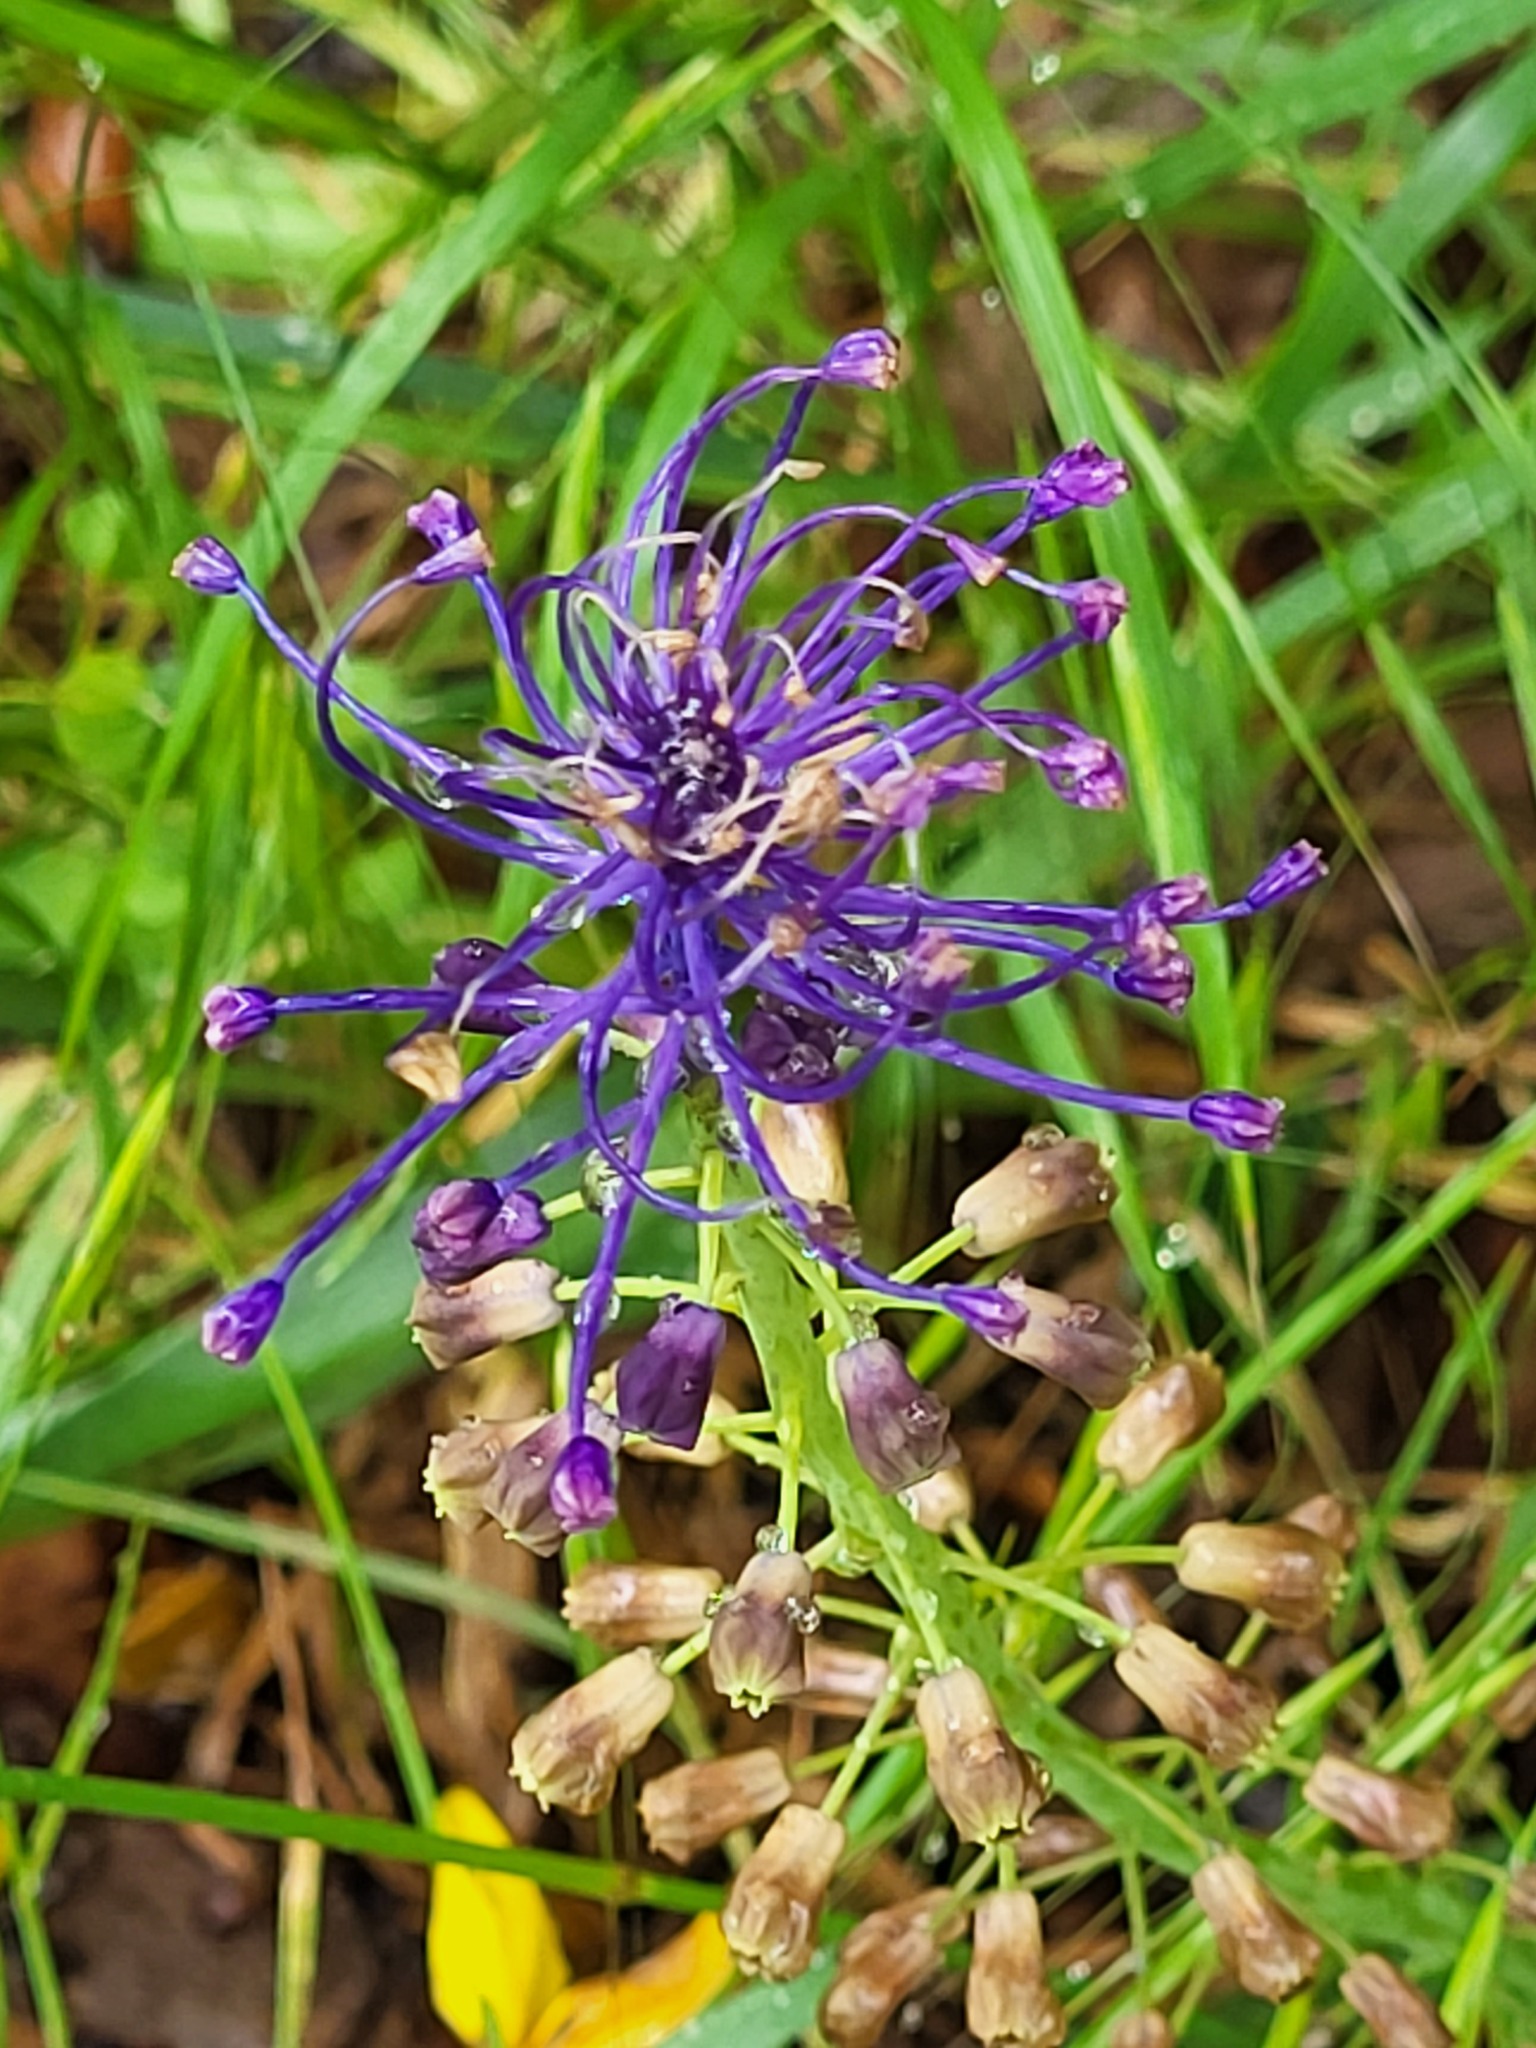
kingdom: Plantae
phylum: Tracheophyta
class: Liliopsida
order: Asparagales
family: Asparagaceae
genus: Muscari
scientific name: Muscari comosum
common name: Tassel hyacinth
